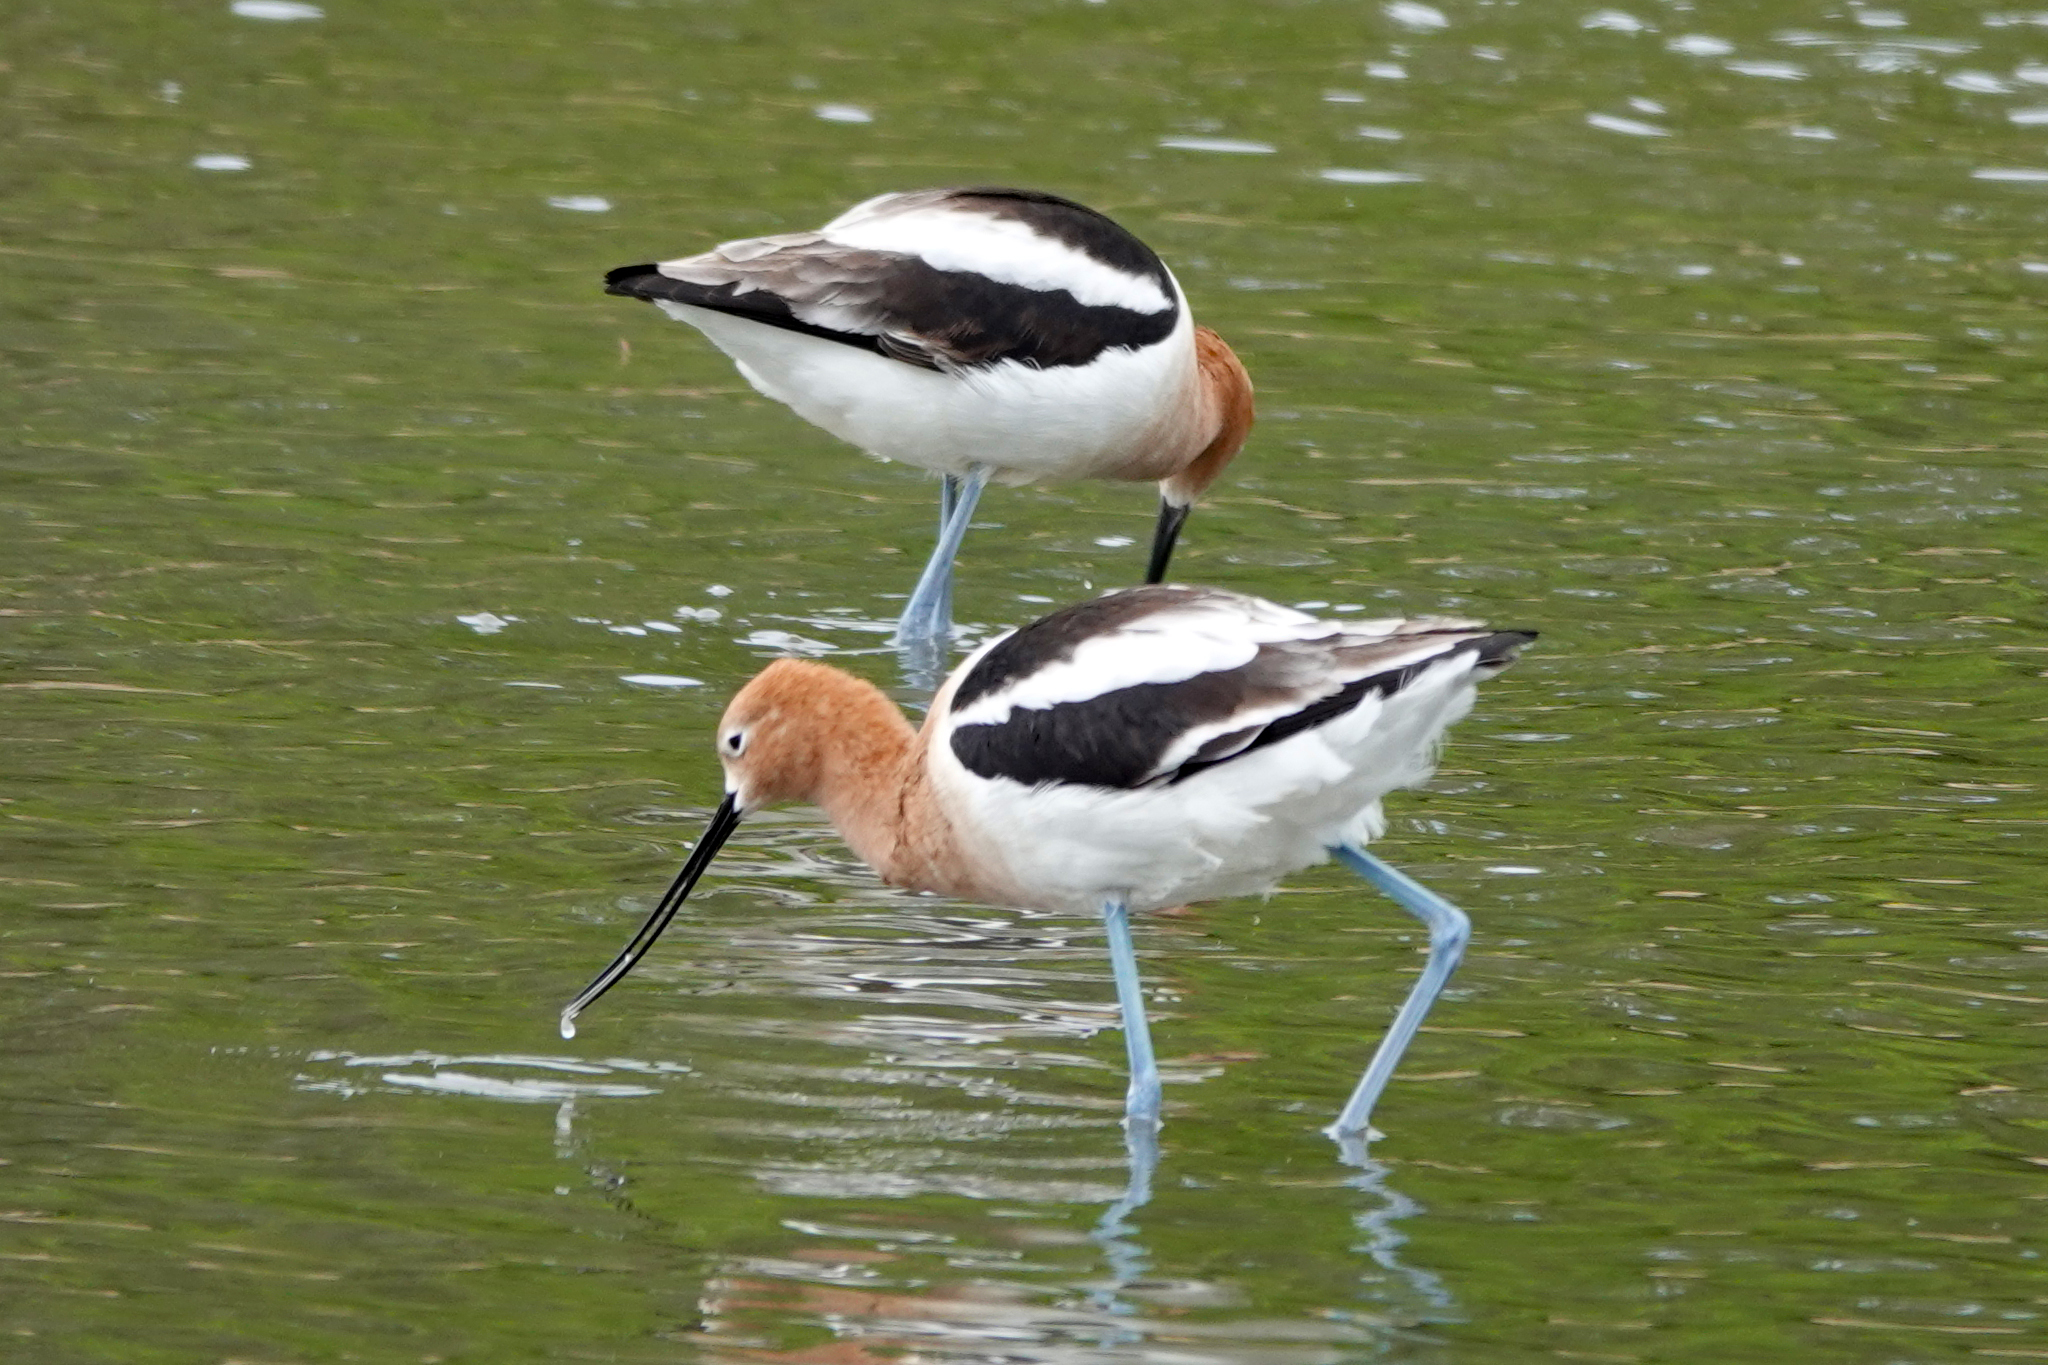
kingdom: Animalia
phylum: Chordata
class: Aves
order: Charadriiformes
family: Recurvirostridae
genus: Recurvirostra
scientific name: Recurvirostra americana
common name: American avocet
